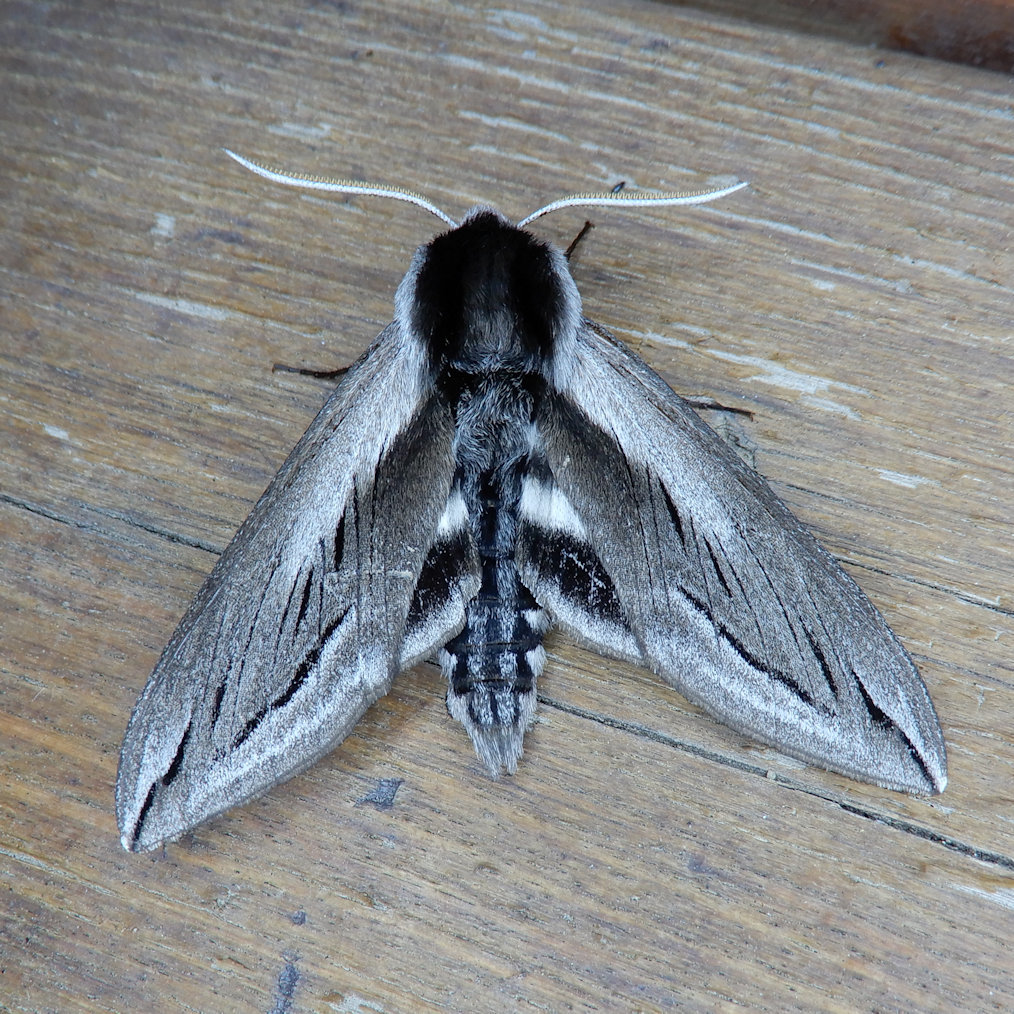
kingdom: Animalia
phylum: Arthropoda
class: Insecta
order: Lepidoptera
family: Sphingidae
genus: Sphinx
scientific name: Sphinx vashti
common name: Snowberry sphinx
